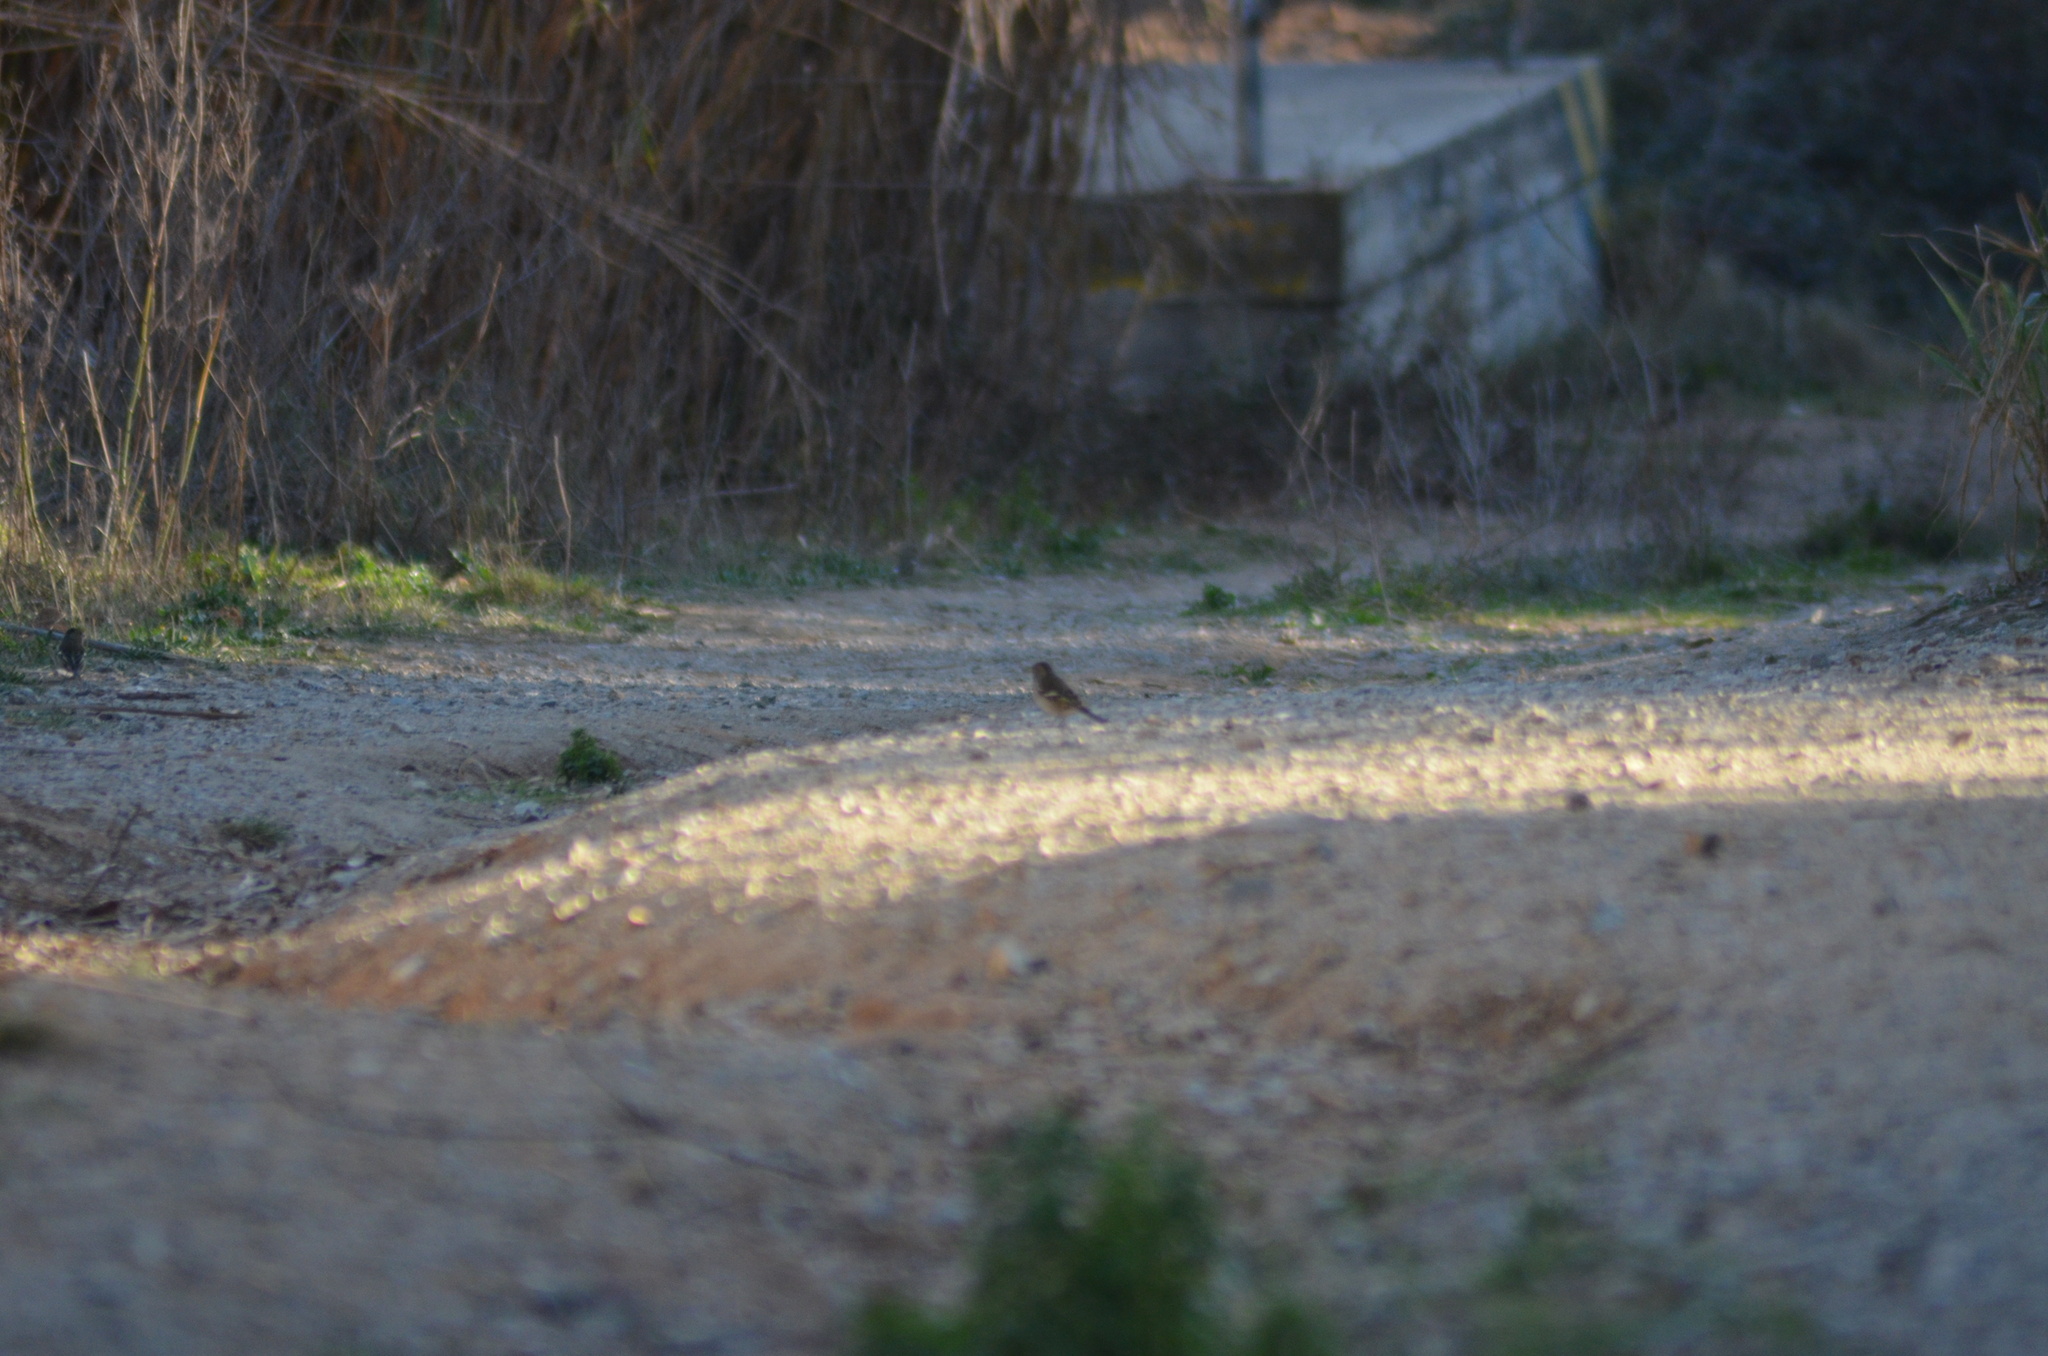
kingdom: Animalia
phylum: Chordata
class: Aves
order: Passeriformes
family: Fringillidae
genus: Fringilla
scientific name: Fringilla coelebs
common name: Common chaffinch
